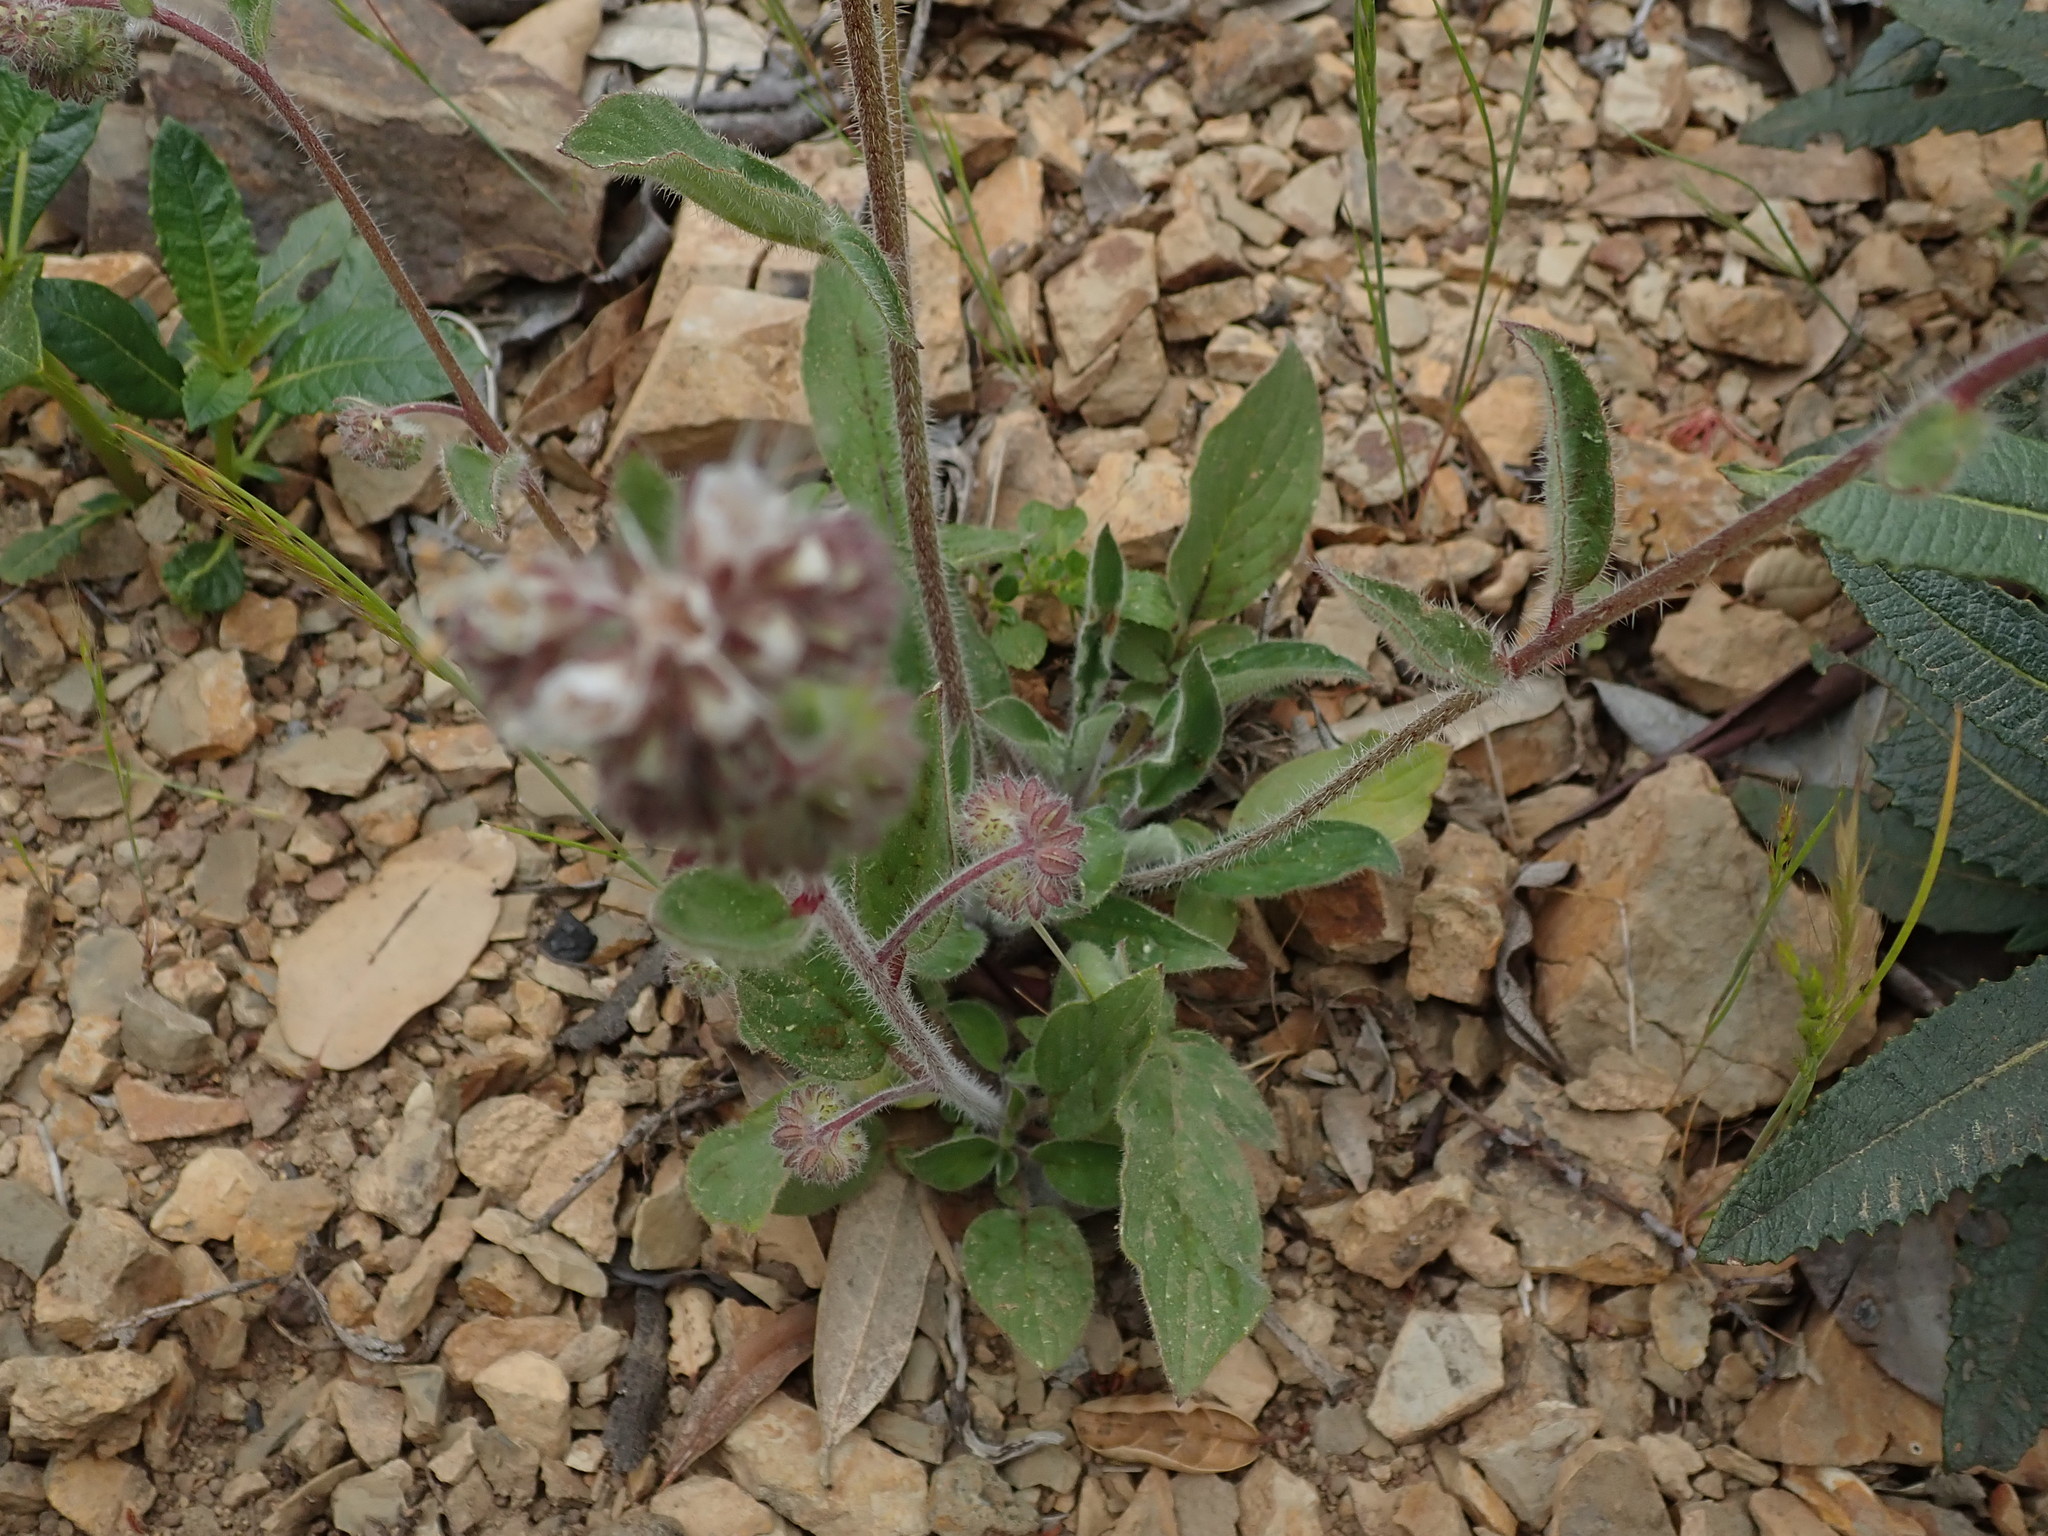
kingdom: Plantae
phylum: Tracheophyta
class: Magnoliopsida
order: Boraginales
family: Hydrophyllaceae
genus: Phacelia
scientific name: Phacelia nemoralis
